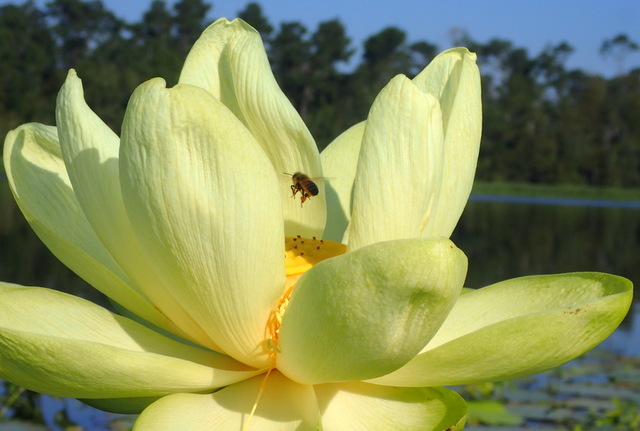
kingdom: Animalia
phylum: Arthropoda
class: Insecta
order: Hymenoptera
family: Apidae
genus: Apis
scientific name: Apis mellifera
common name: Honey bee
